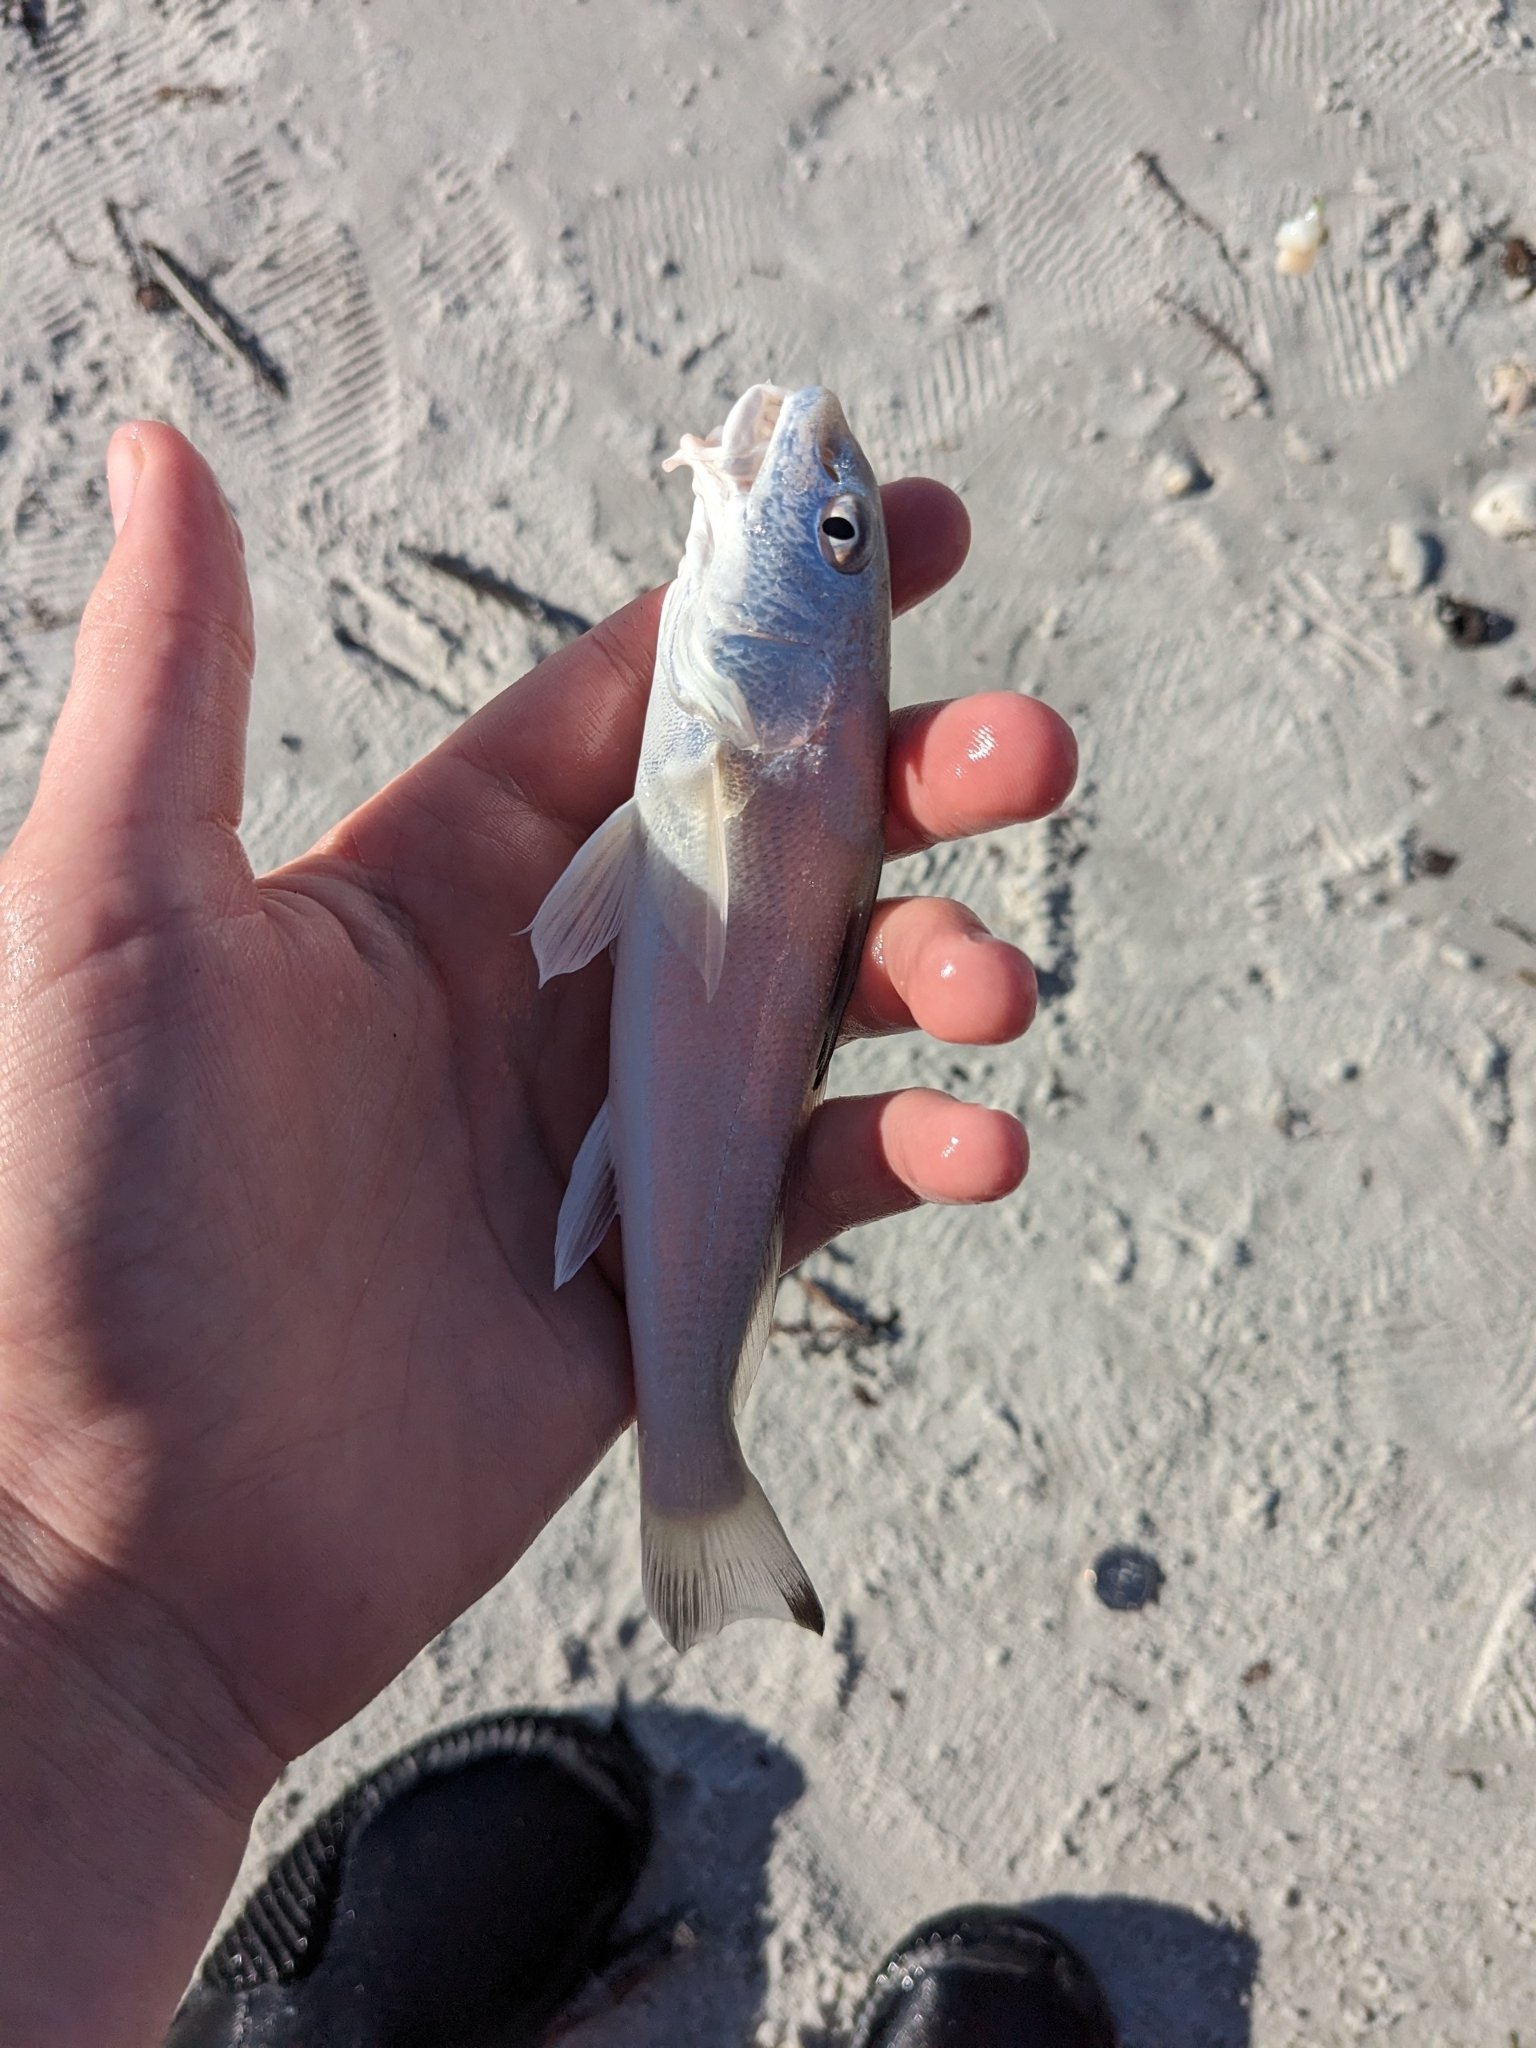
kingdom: Animalia
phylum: Chordata
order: Perciformes
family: Sciaenidae
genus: Menticirrhus
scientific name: Menticirrhus littoralis
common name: Gulf kingcroaker
